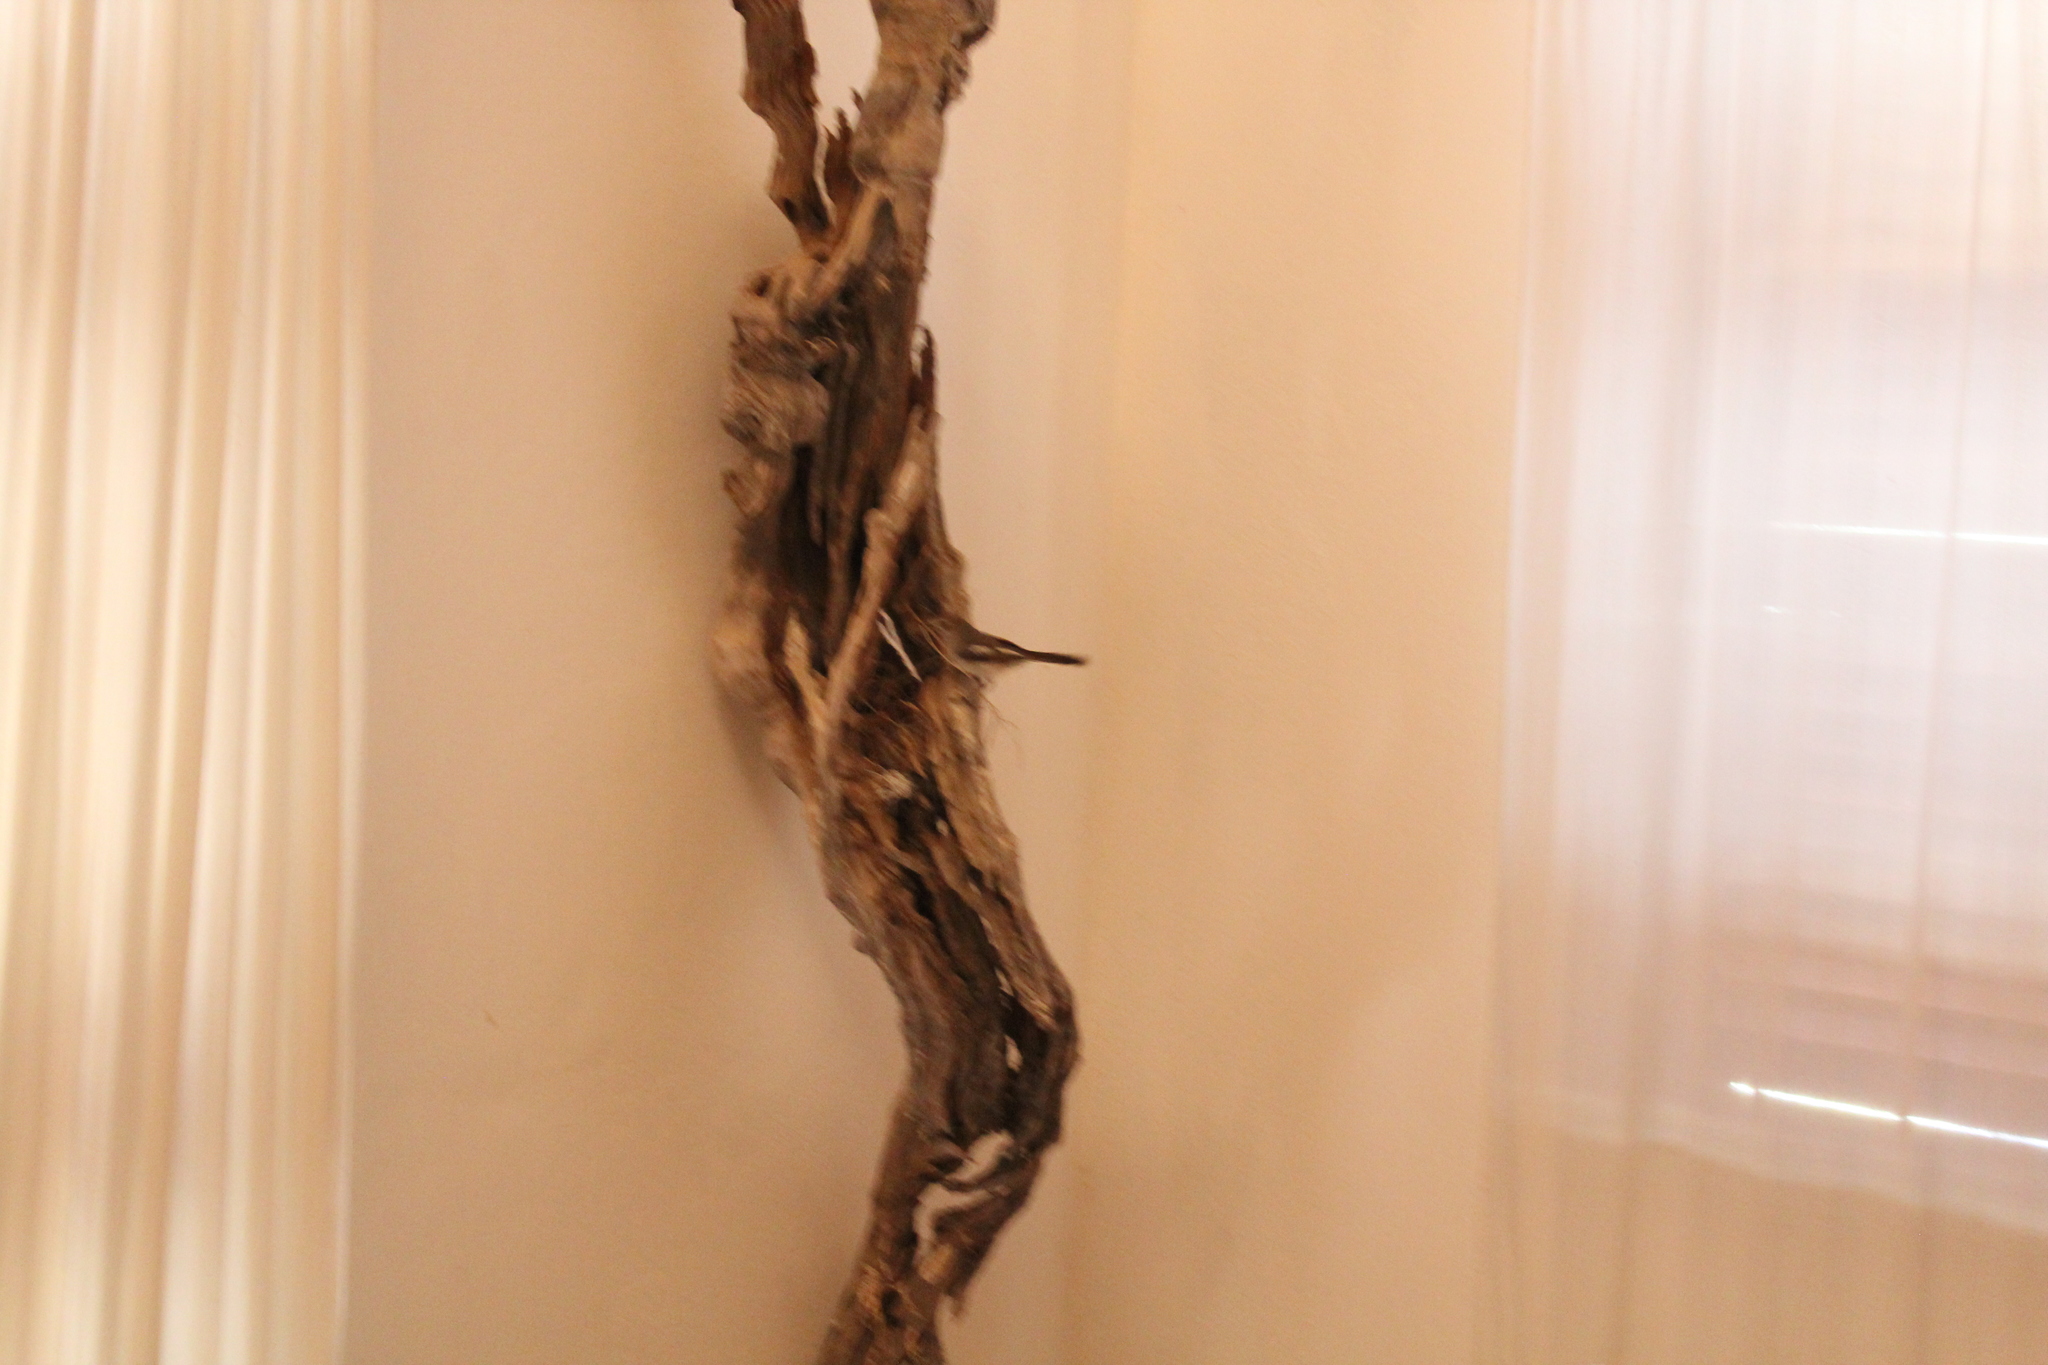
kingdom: Animalia
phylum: Chordata
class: Aves
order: Passeriformes
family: Muscicapidae
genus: Copsychus
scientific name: Copsychus albospecularis
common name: Madagascar magpie-robin
